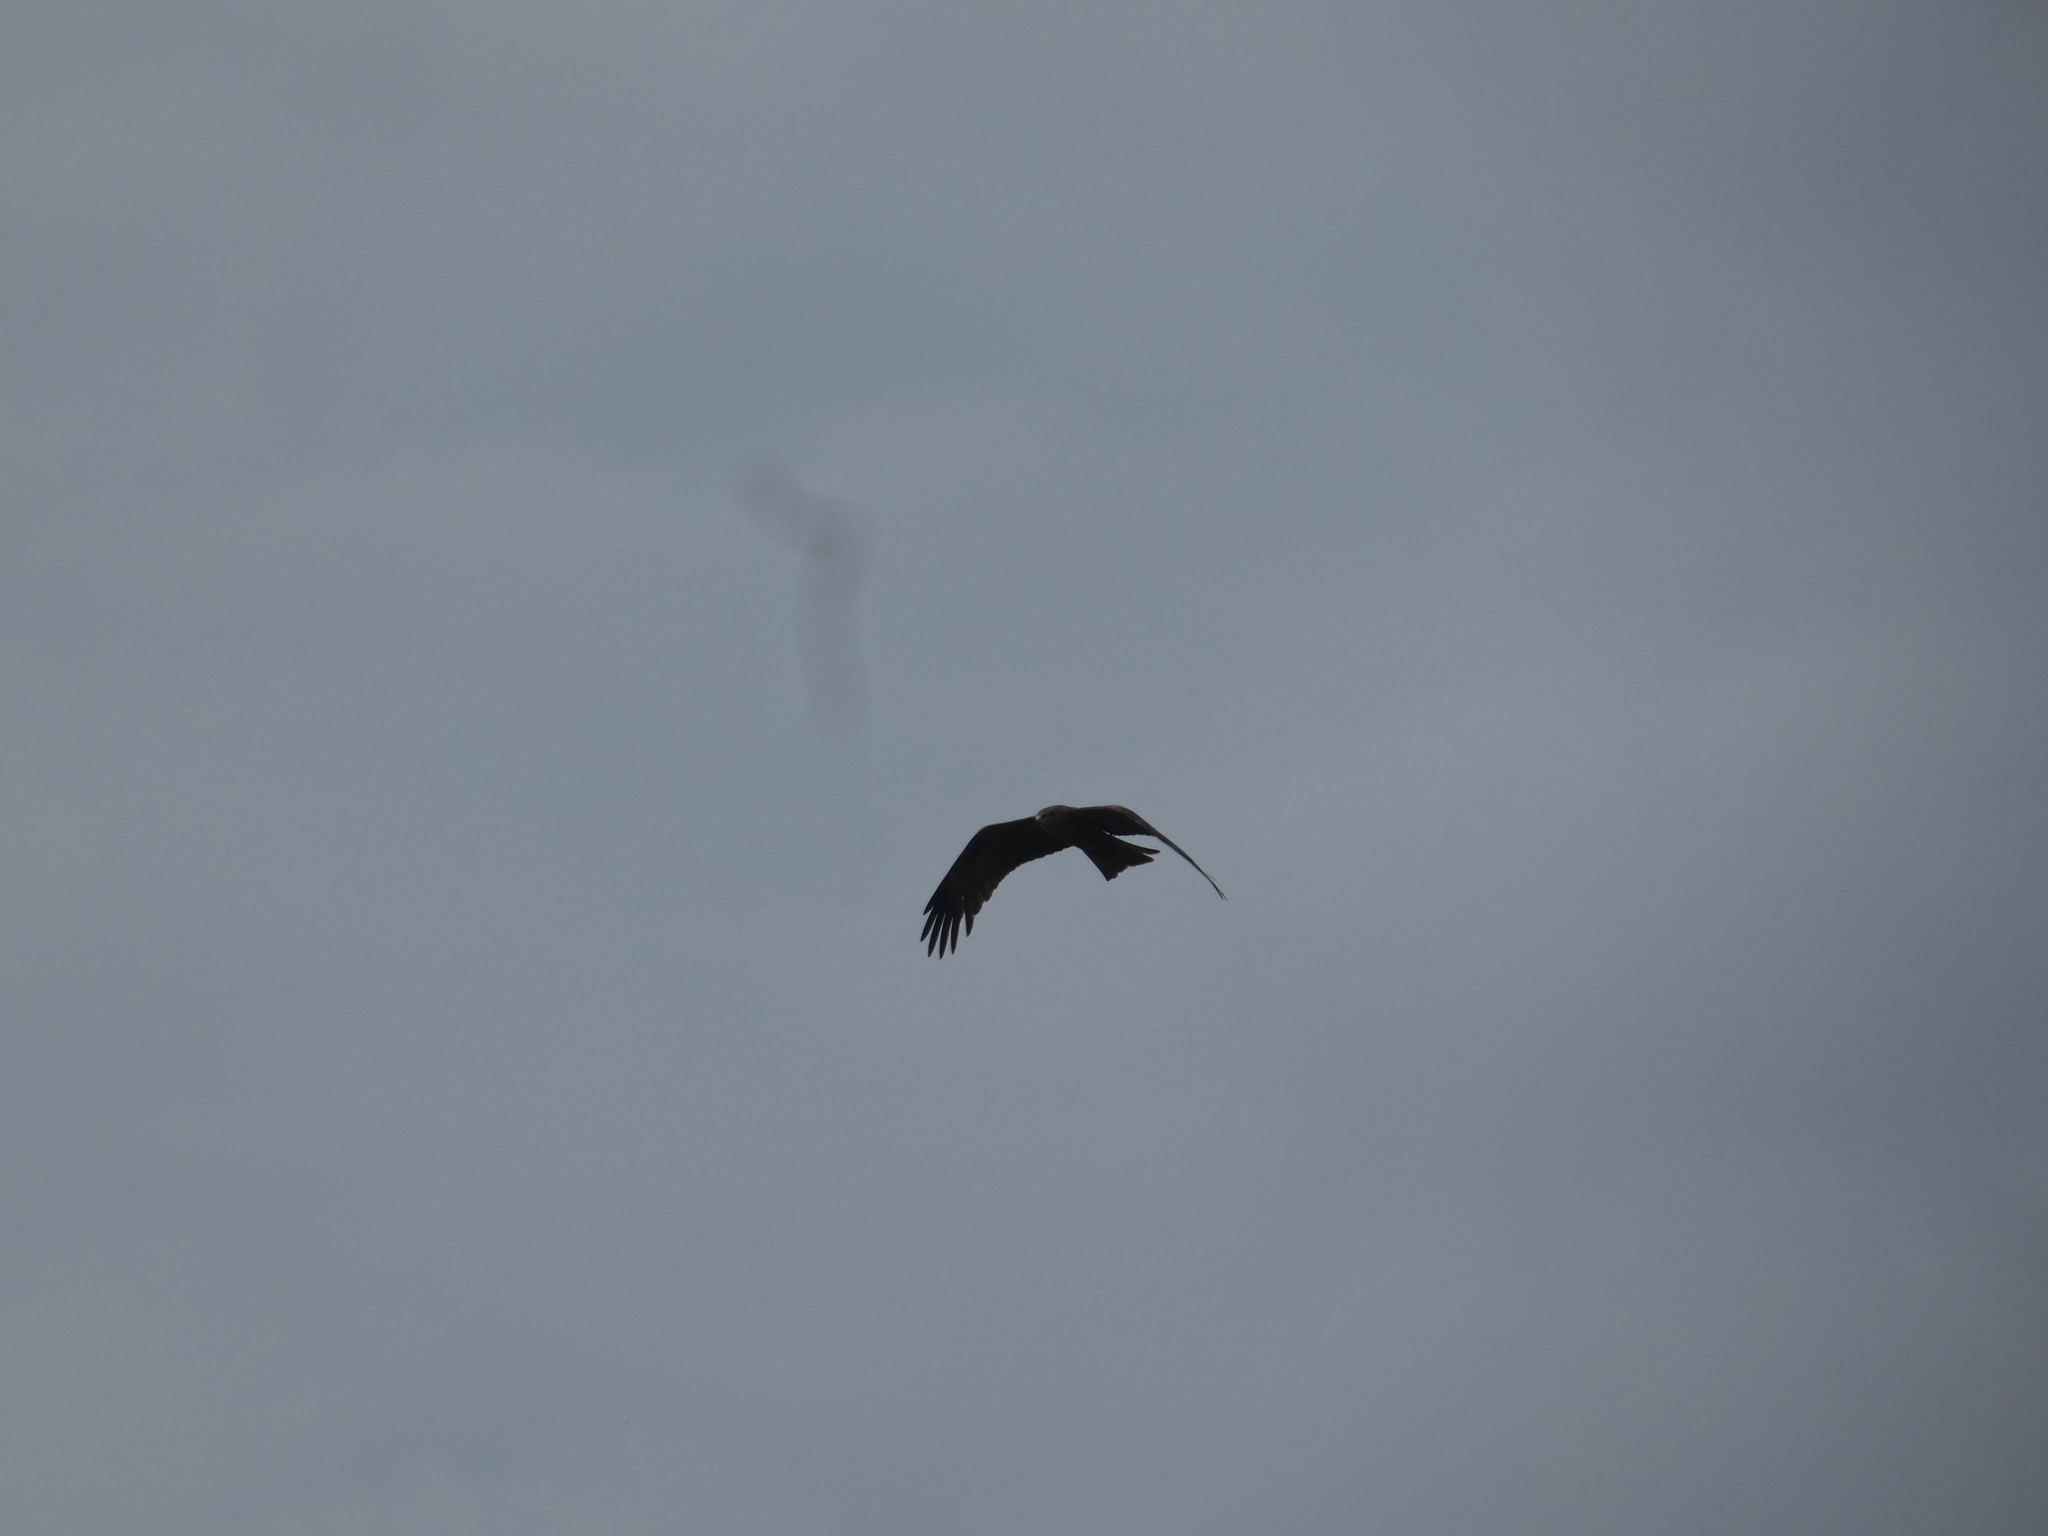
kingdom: Animalia
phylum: Chordata
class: Aves
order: Accipitriformes
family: Accipitridae
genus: Milvus
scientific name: Milvus migrans
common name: Black kite
